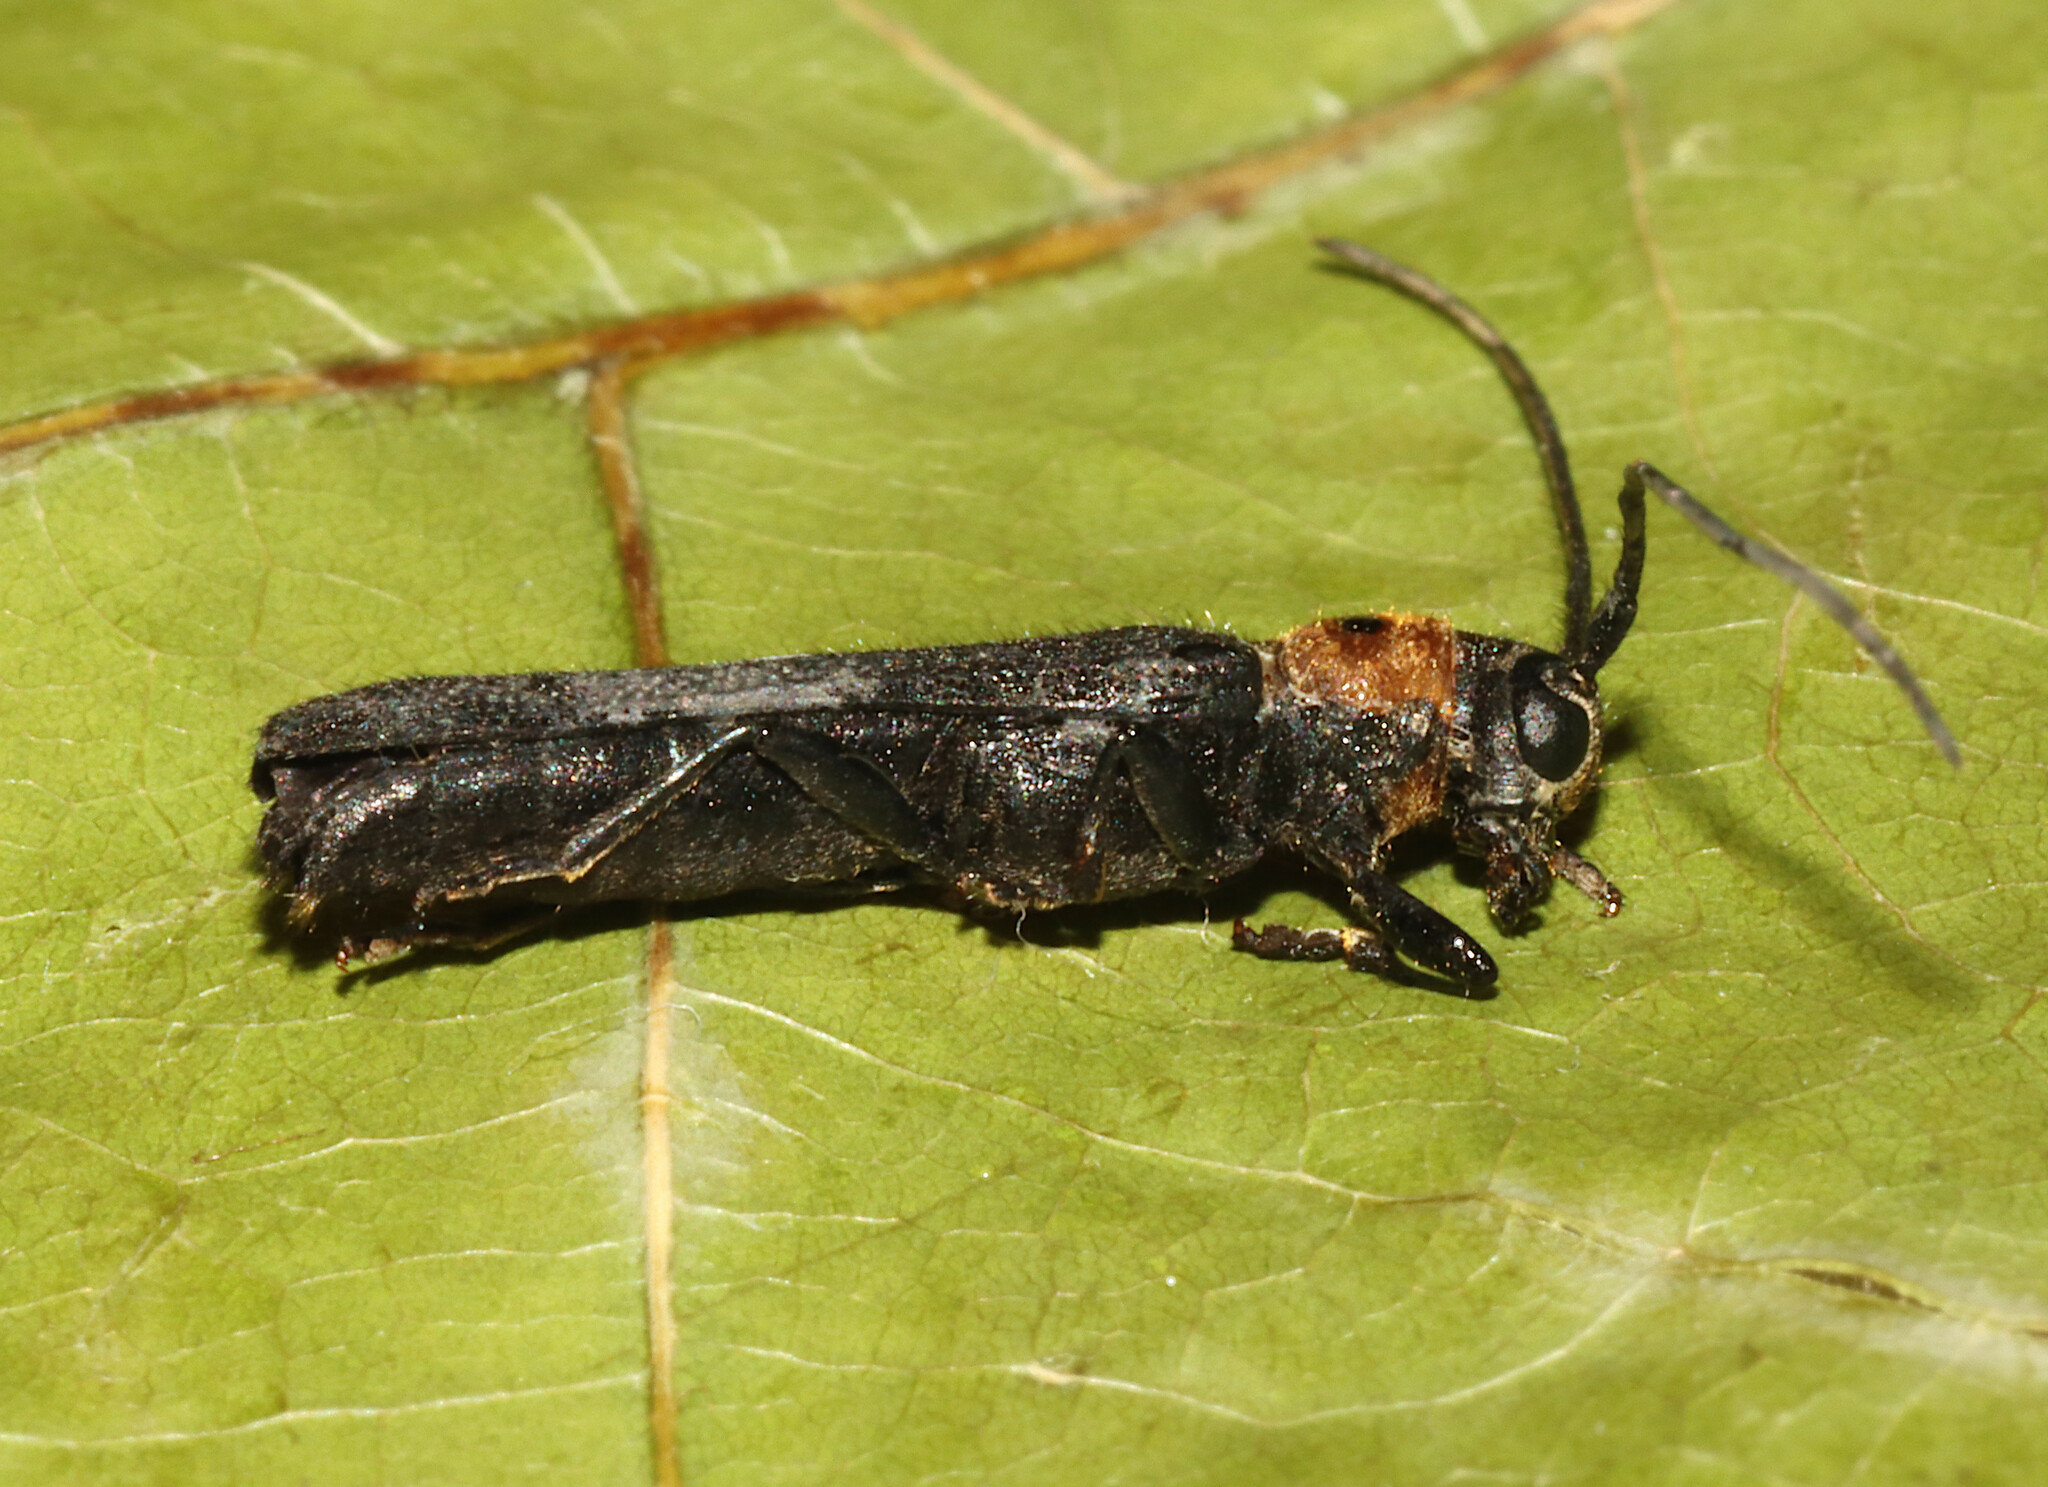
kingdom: Animalia
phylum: Arthropoda
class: Insecta
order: Coleoptera
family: Cerambycidae
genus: Oberea
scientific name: Oberea affinis
